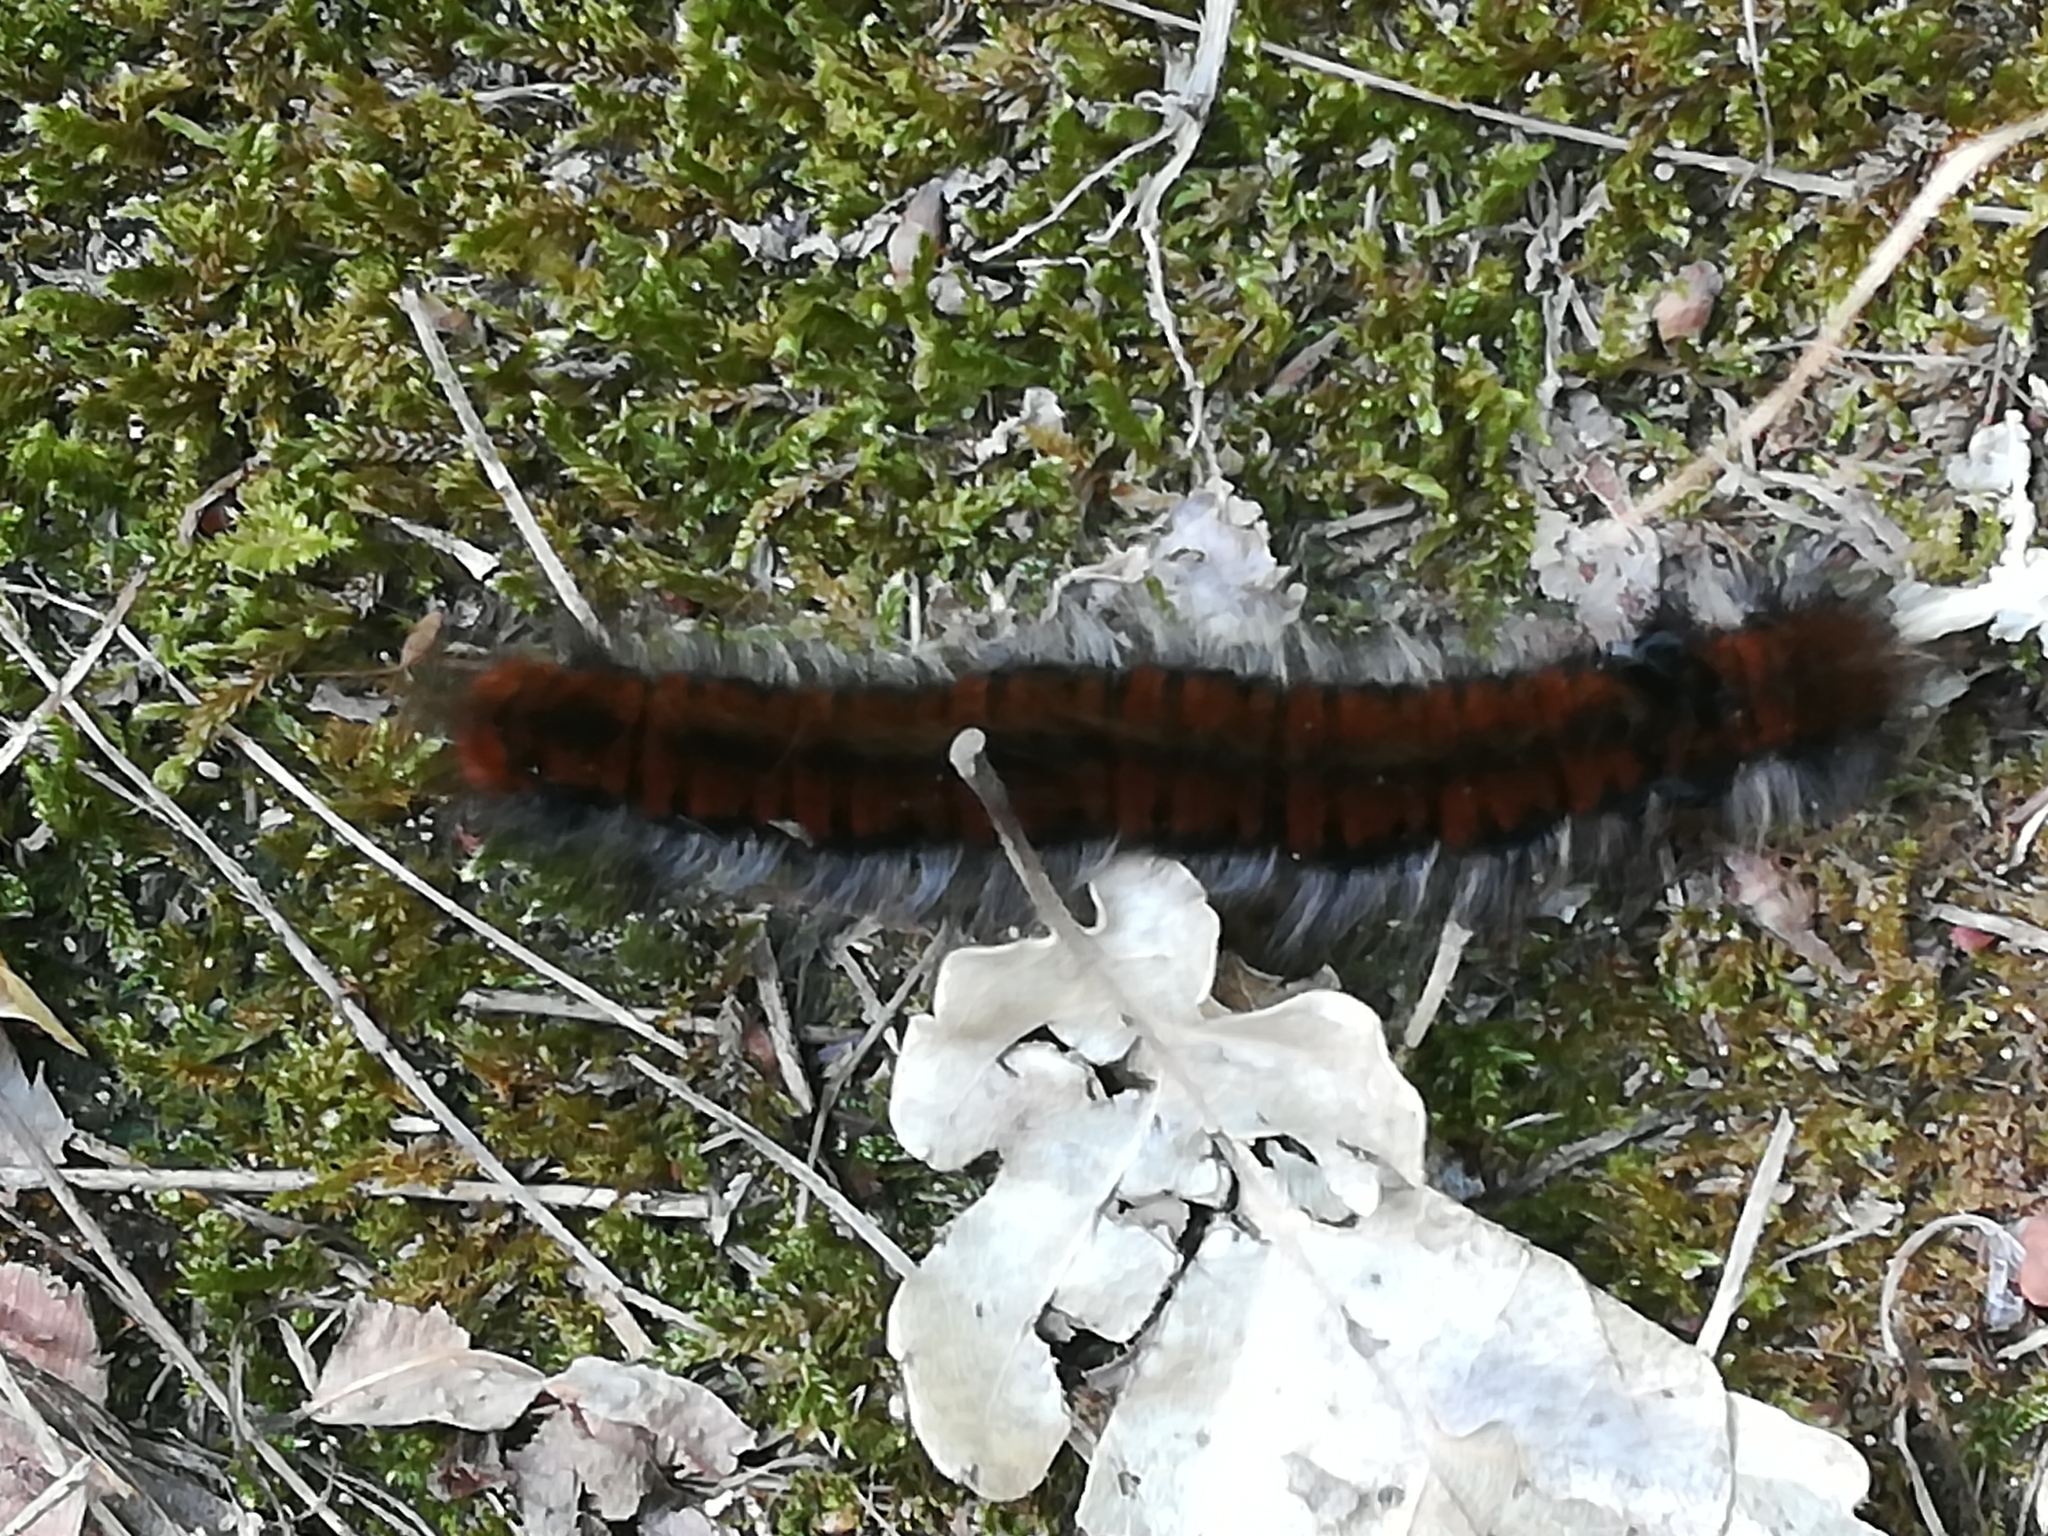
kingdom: Animalia
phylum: Arthropoda
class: Insecta
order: Lepidoptera
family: Lasiocampidae
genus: Macrothylacia
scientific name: Macrothylacia rubi
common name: Fox moth
